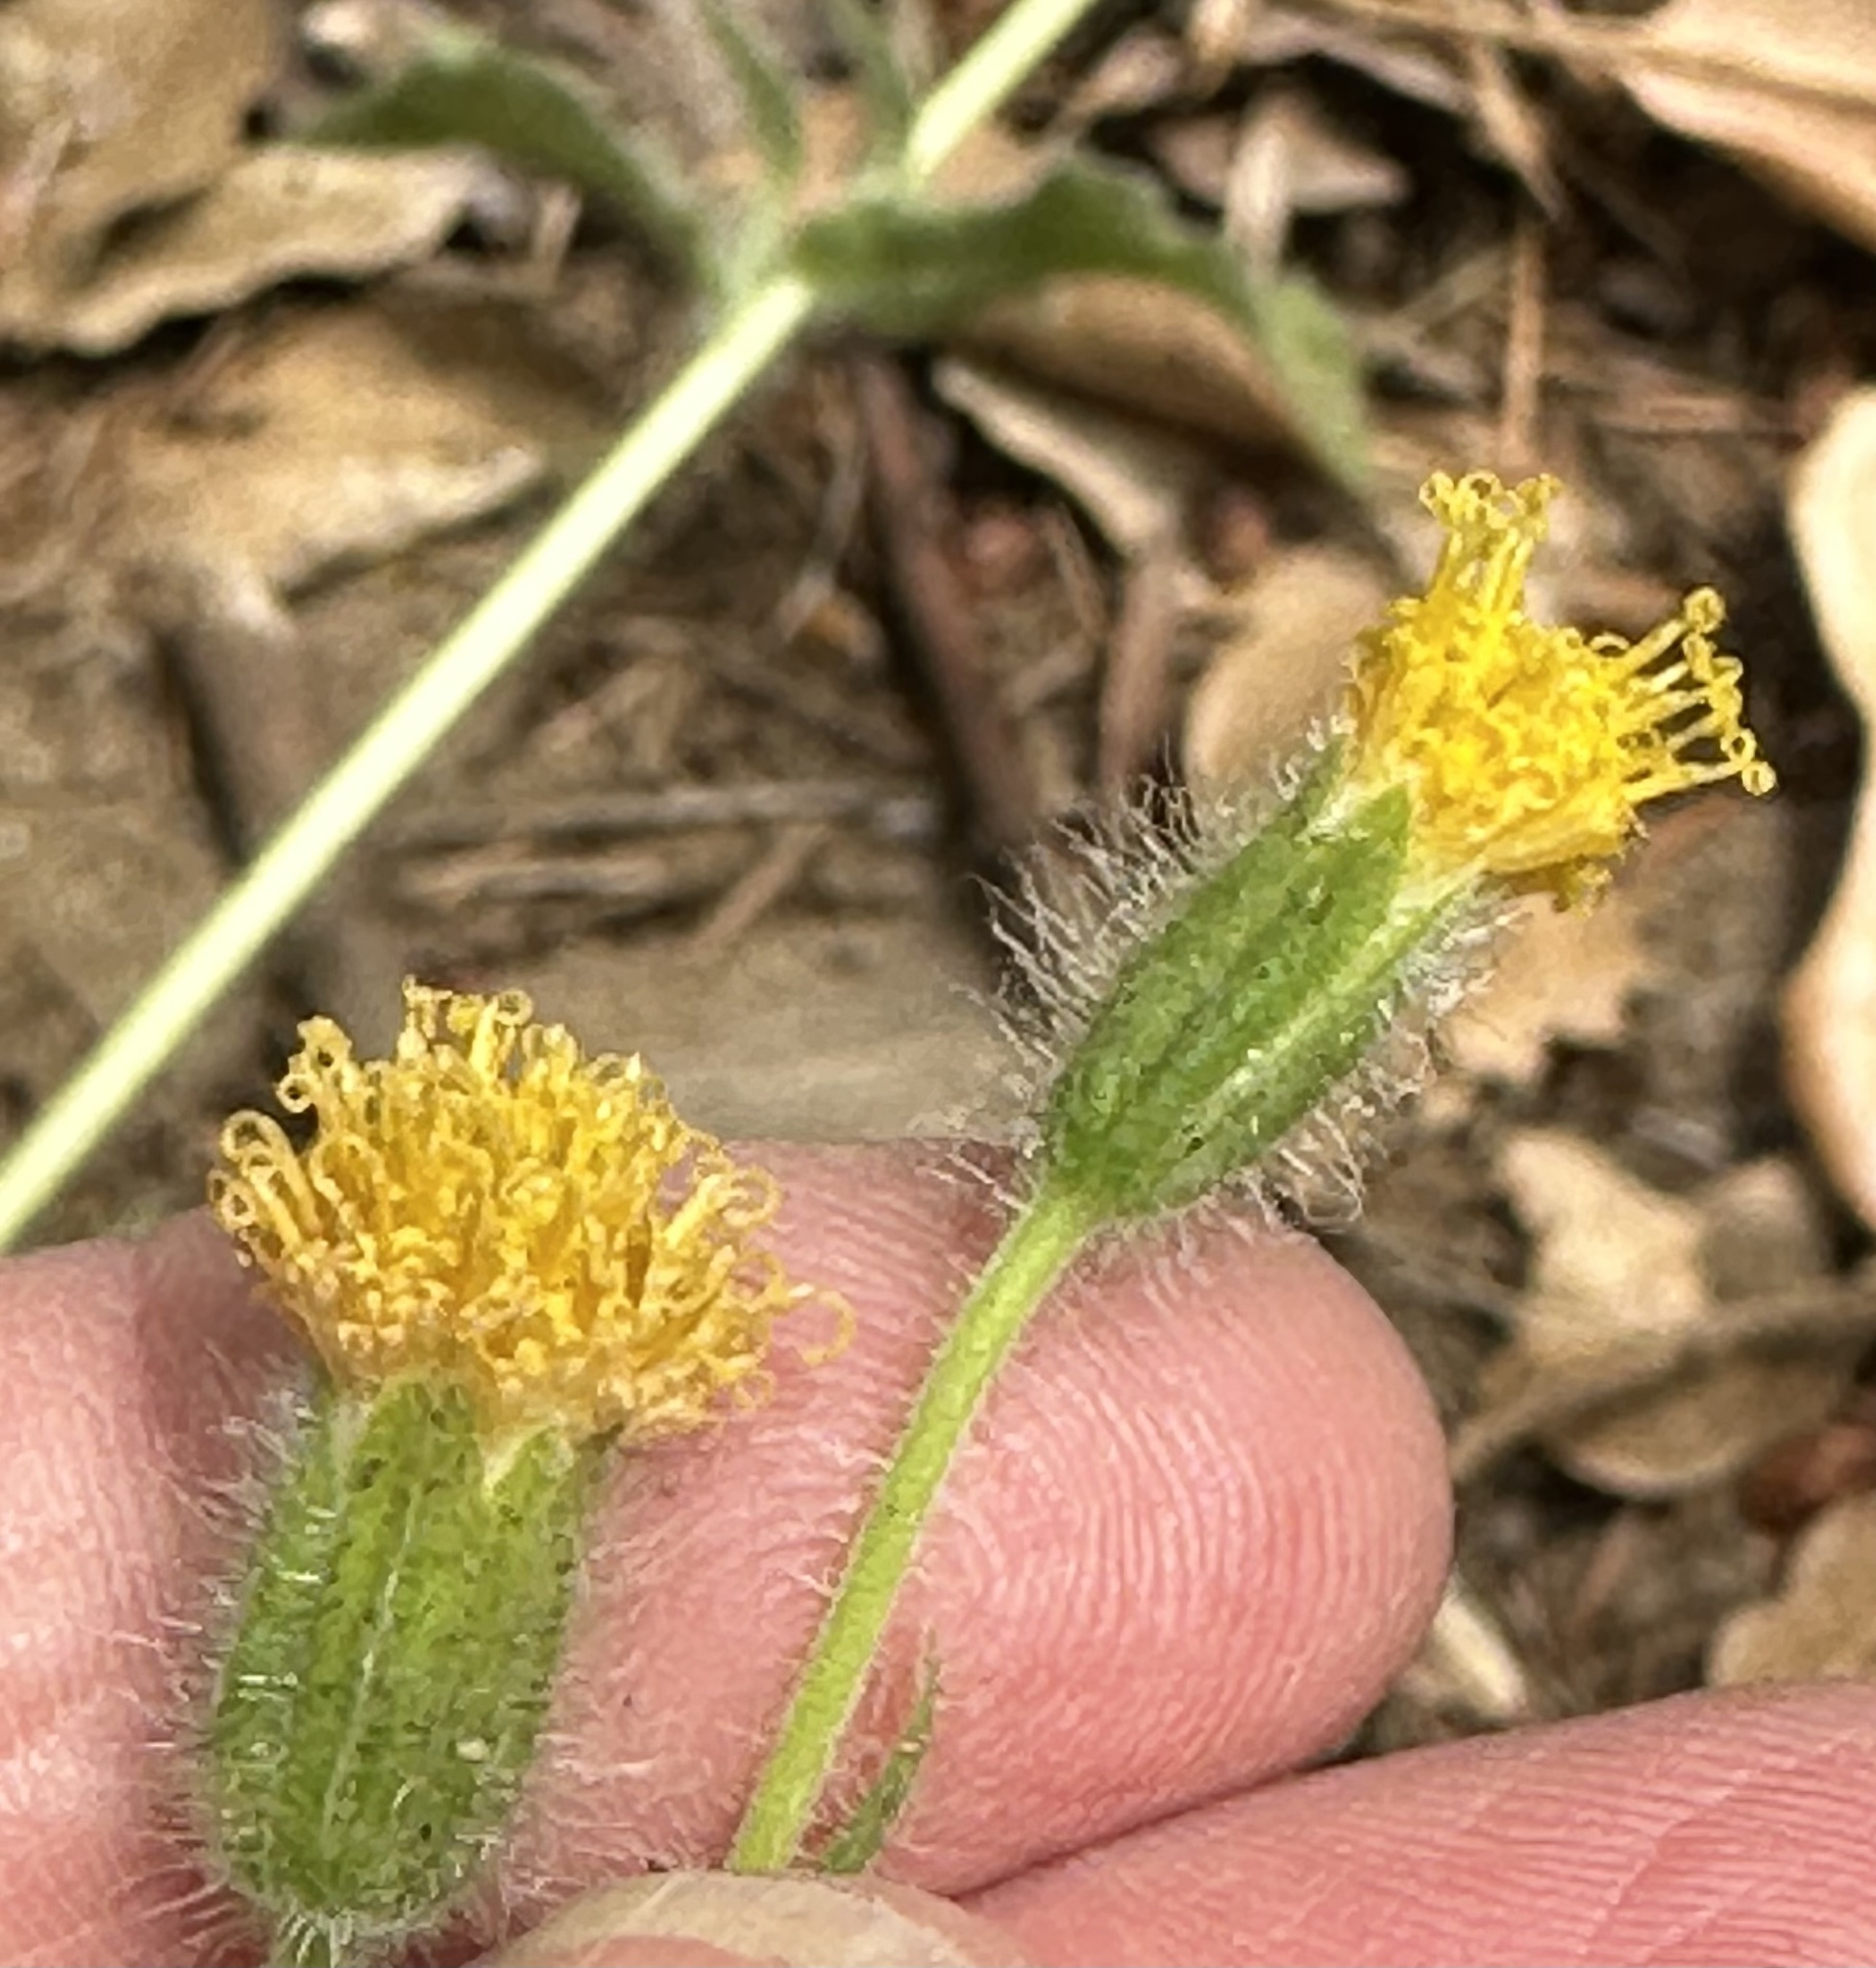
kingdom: Plantae
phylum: Tracheophyta
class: Magnoliopsida
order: Asterales
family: Asteraceae
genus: Arnica
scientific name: Arnica discoidea
